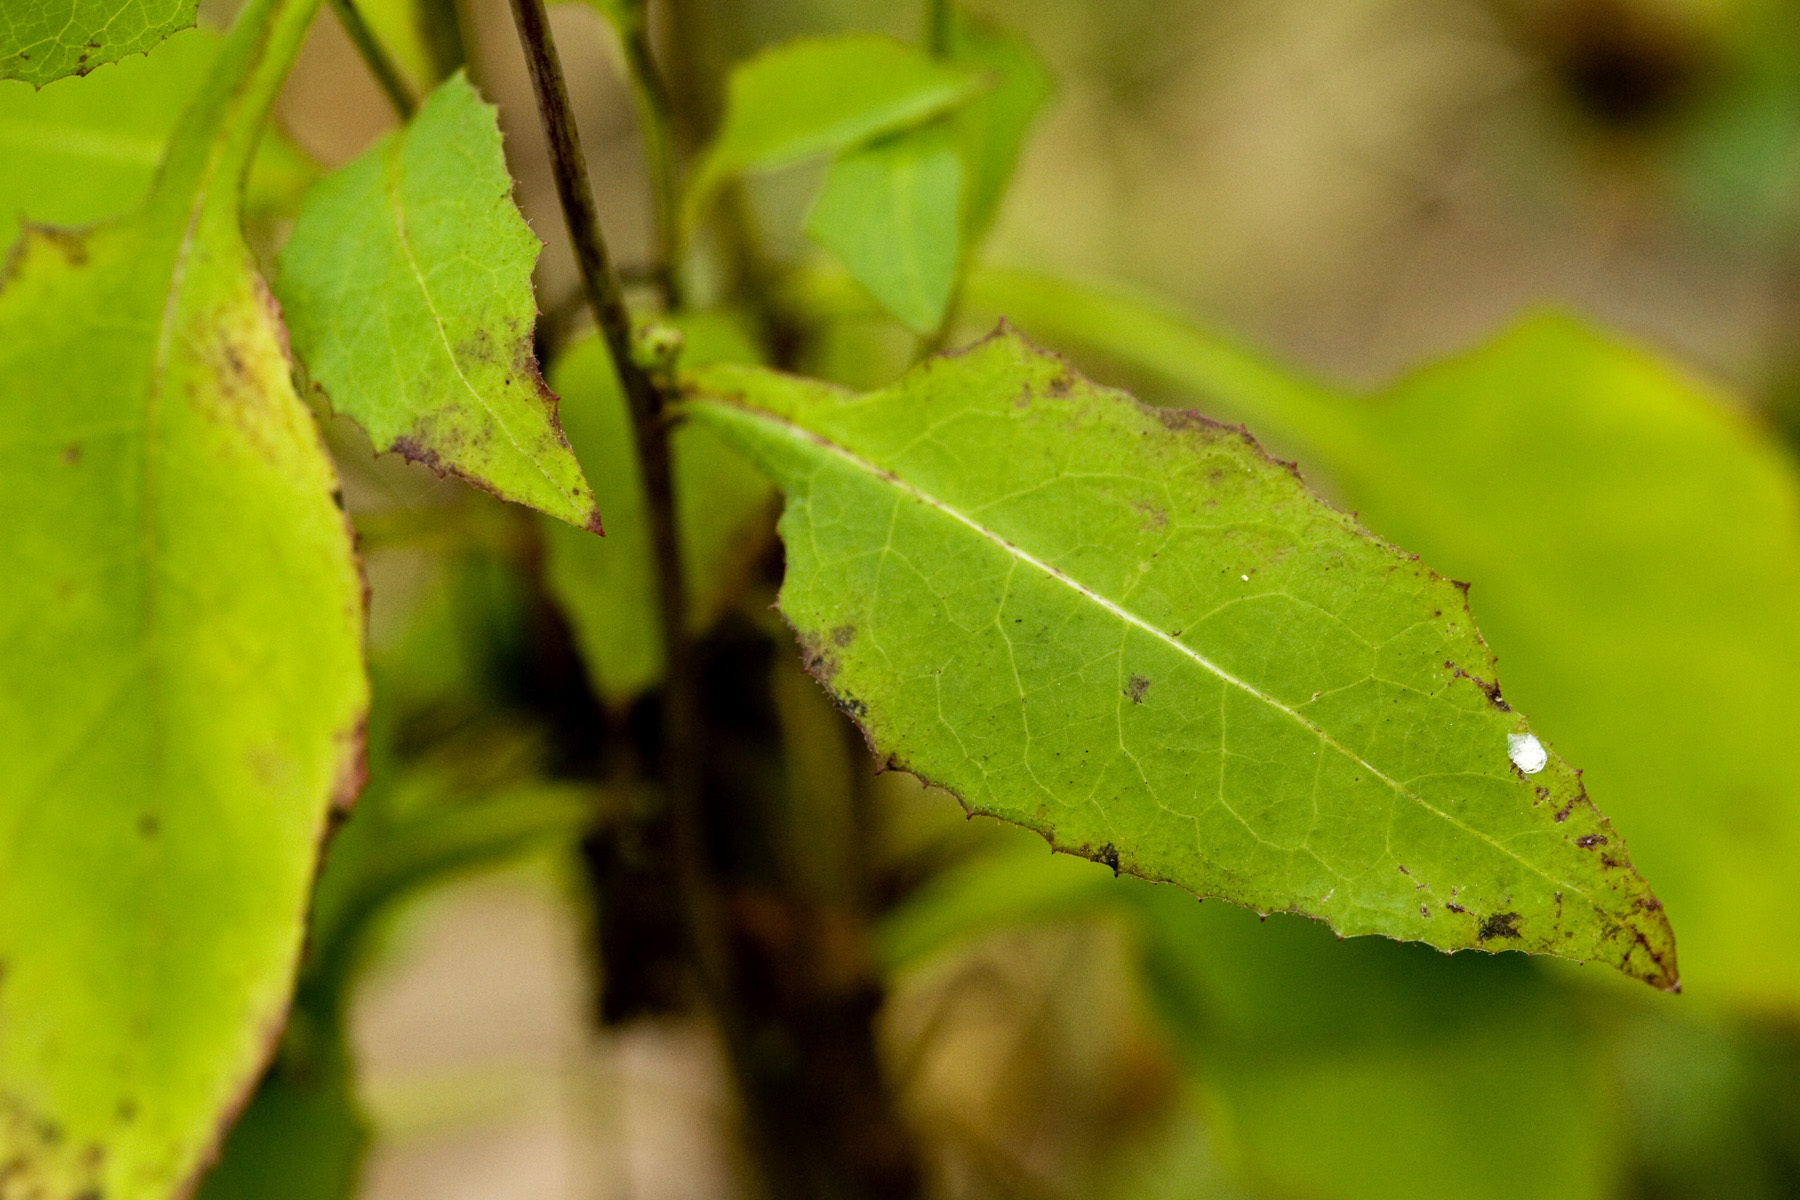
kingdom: Plantae
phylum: Tracheophyta
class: Magnoliopsida
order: Asterales
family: Asteraceae
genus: Lactuca
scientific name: Lactuca floridana
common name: Woodland lettuce
